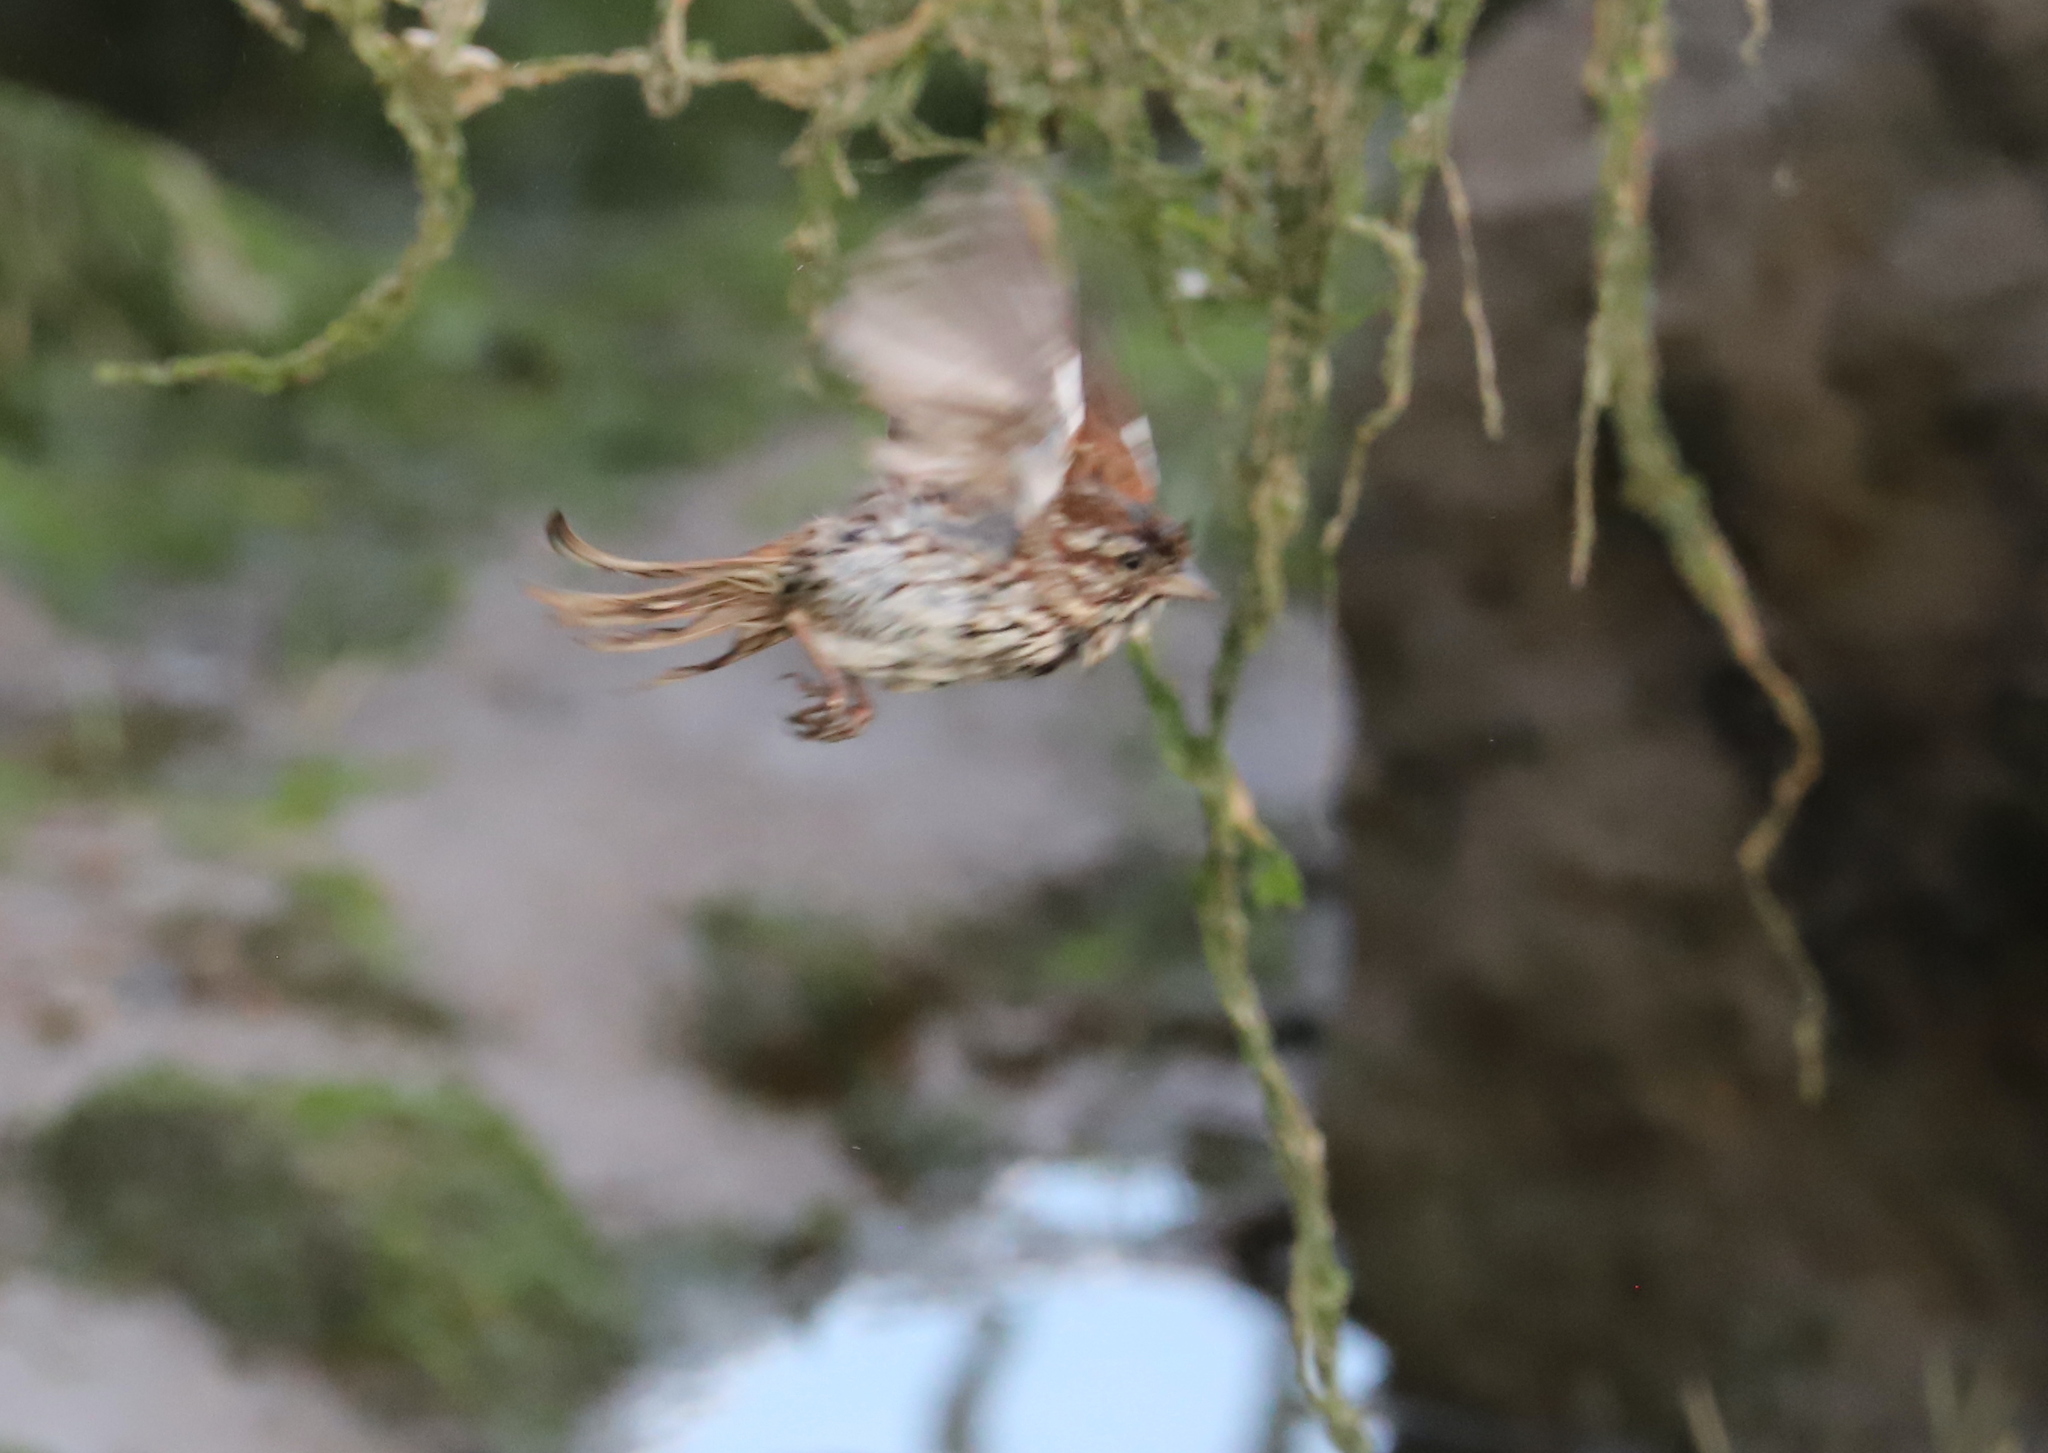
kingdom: Animalia
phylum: Chordata
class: Aves
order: Passeriformes
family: Passerellidae
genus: Melospiza
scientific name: Melospiza melodia
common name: Song sparrow
